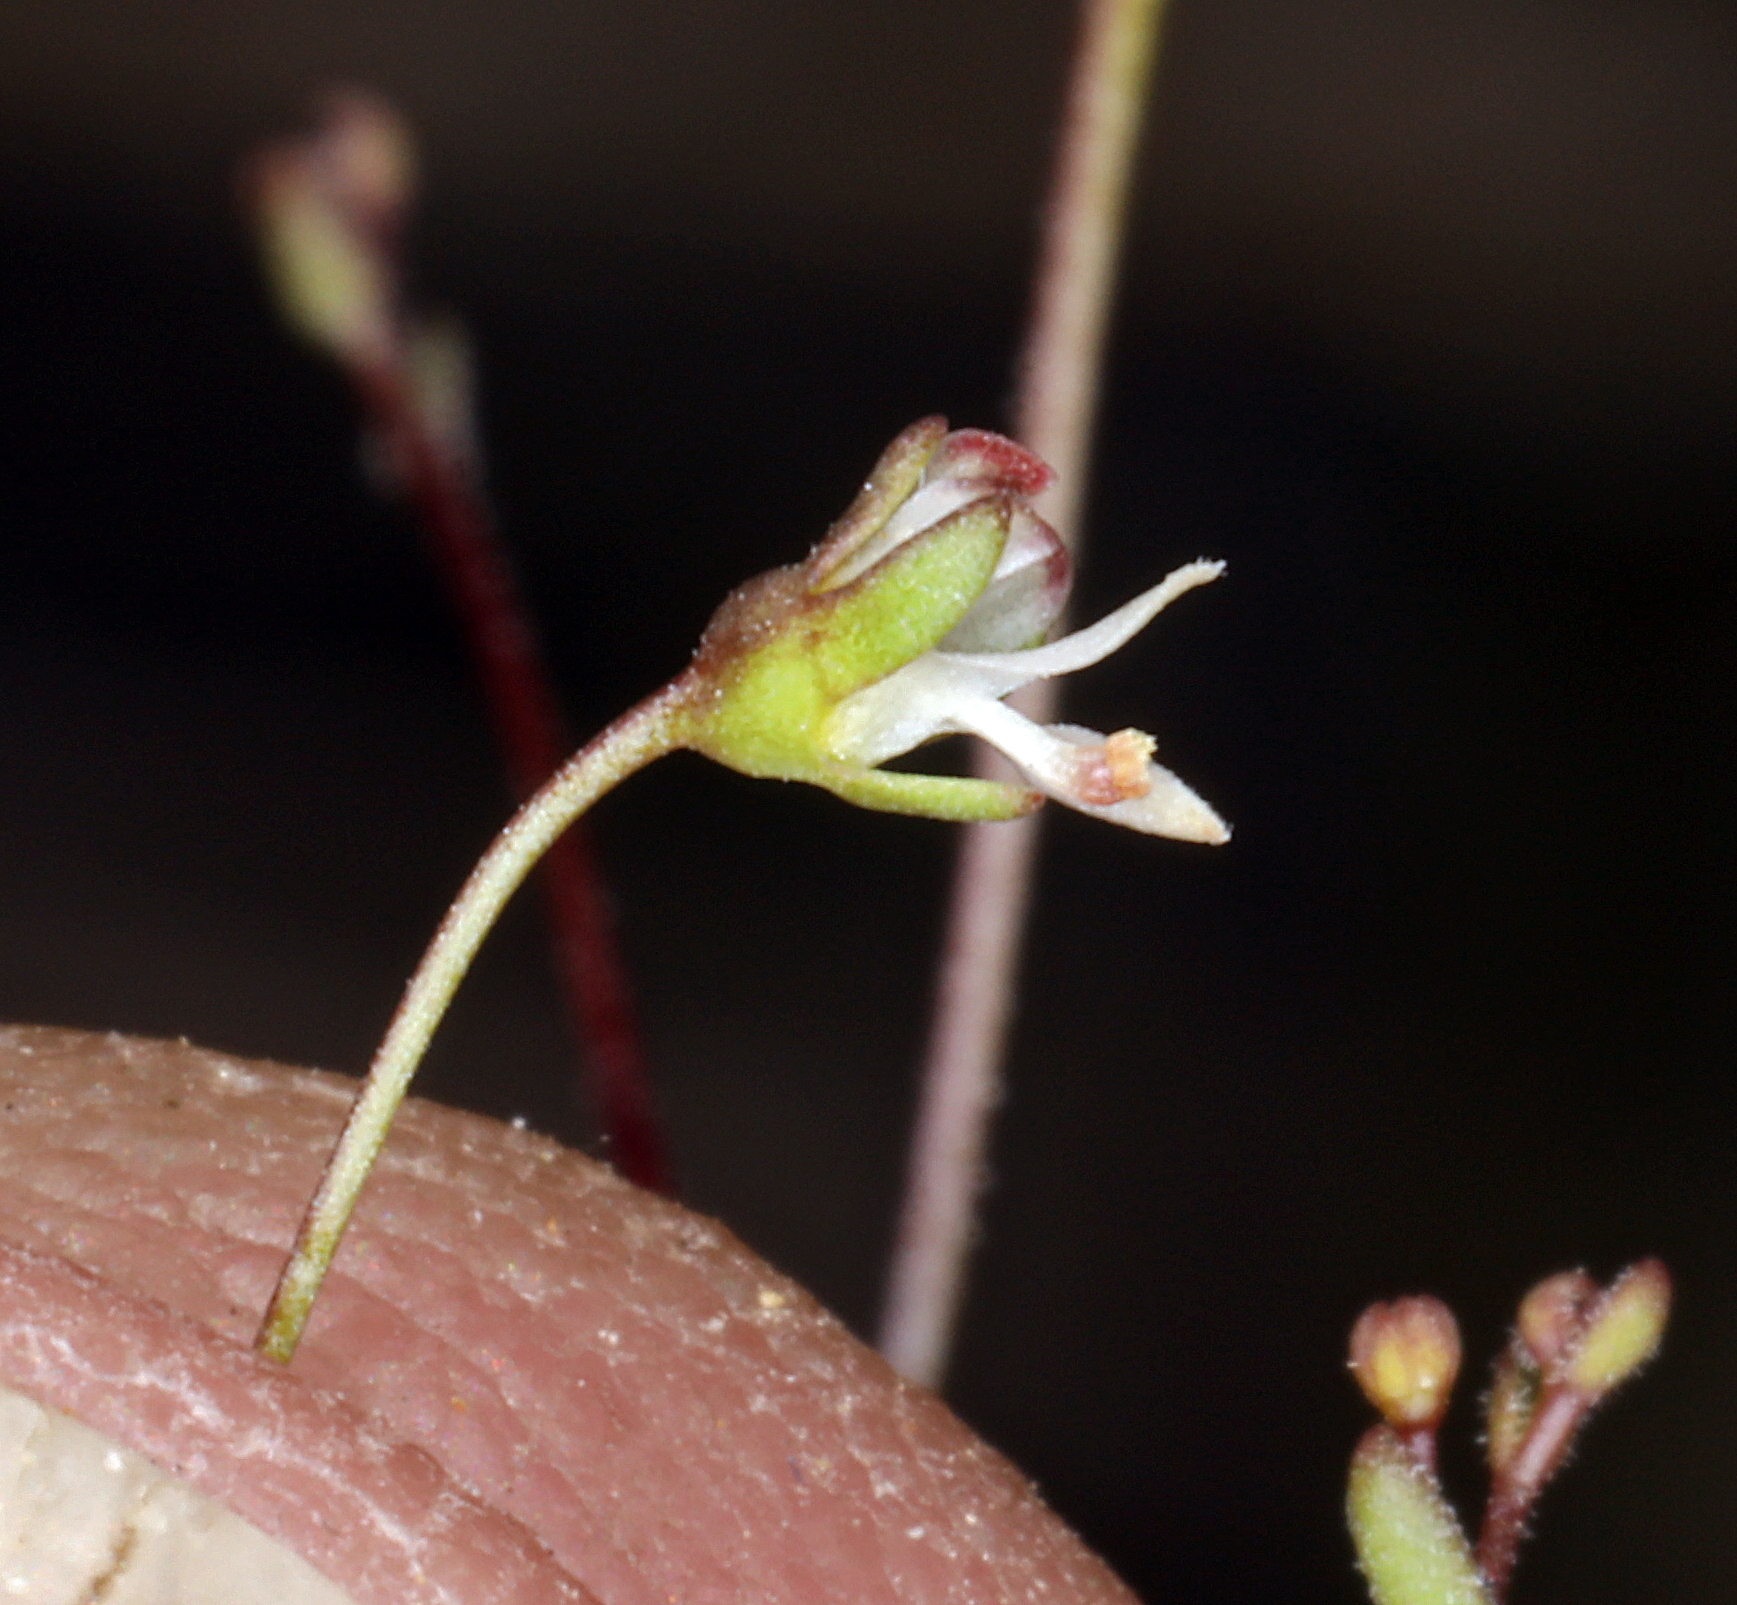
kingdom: Plantae
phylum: Tracheophyta
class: Magnoliopsida
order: Asterales
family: Campanulaceae
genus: Nemacladus
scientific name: Nemacladus morefieldii
